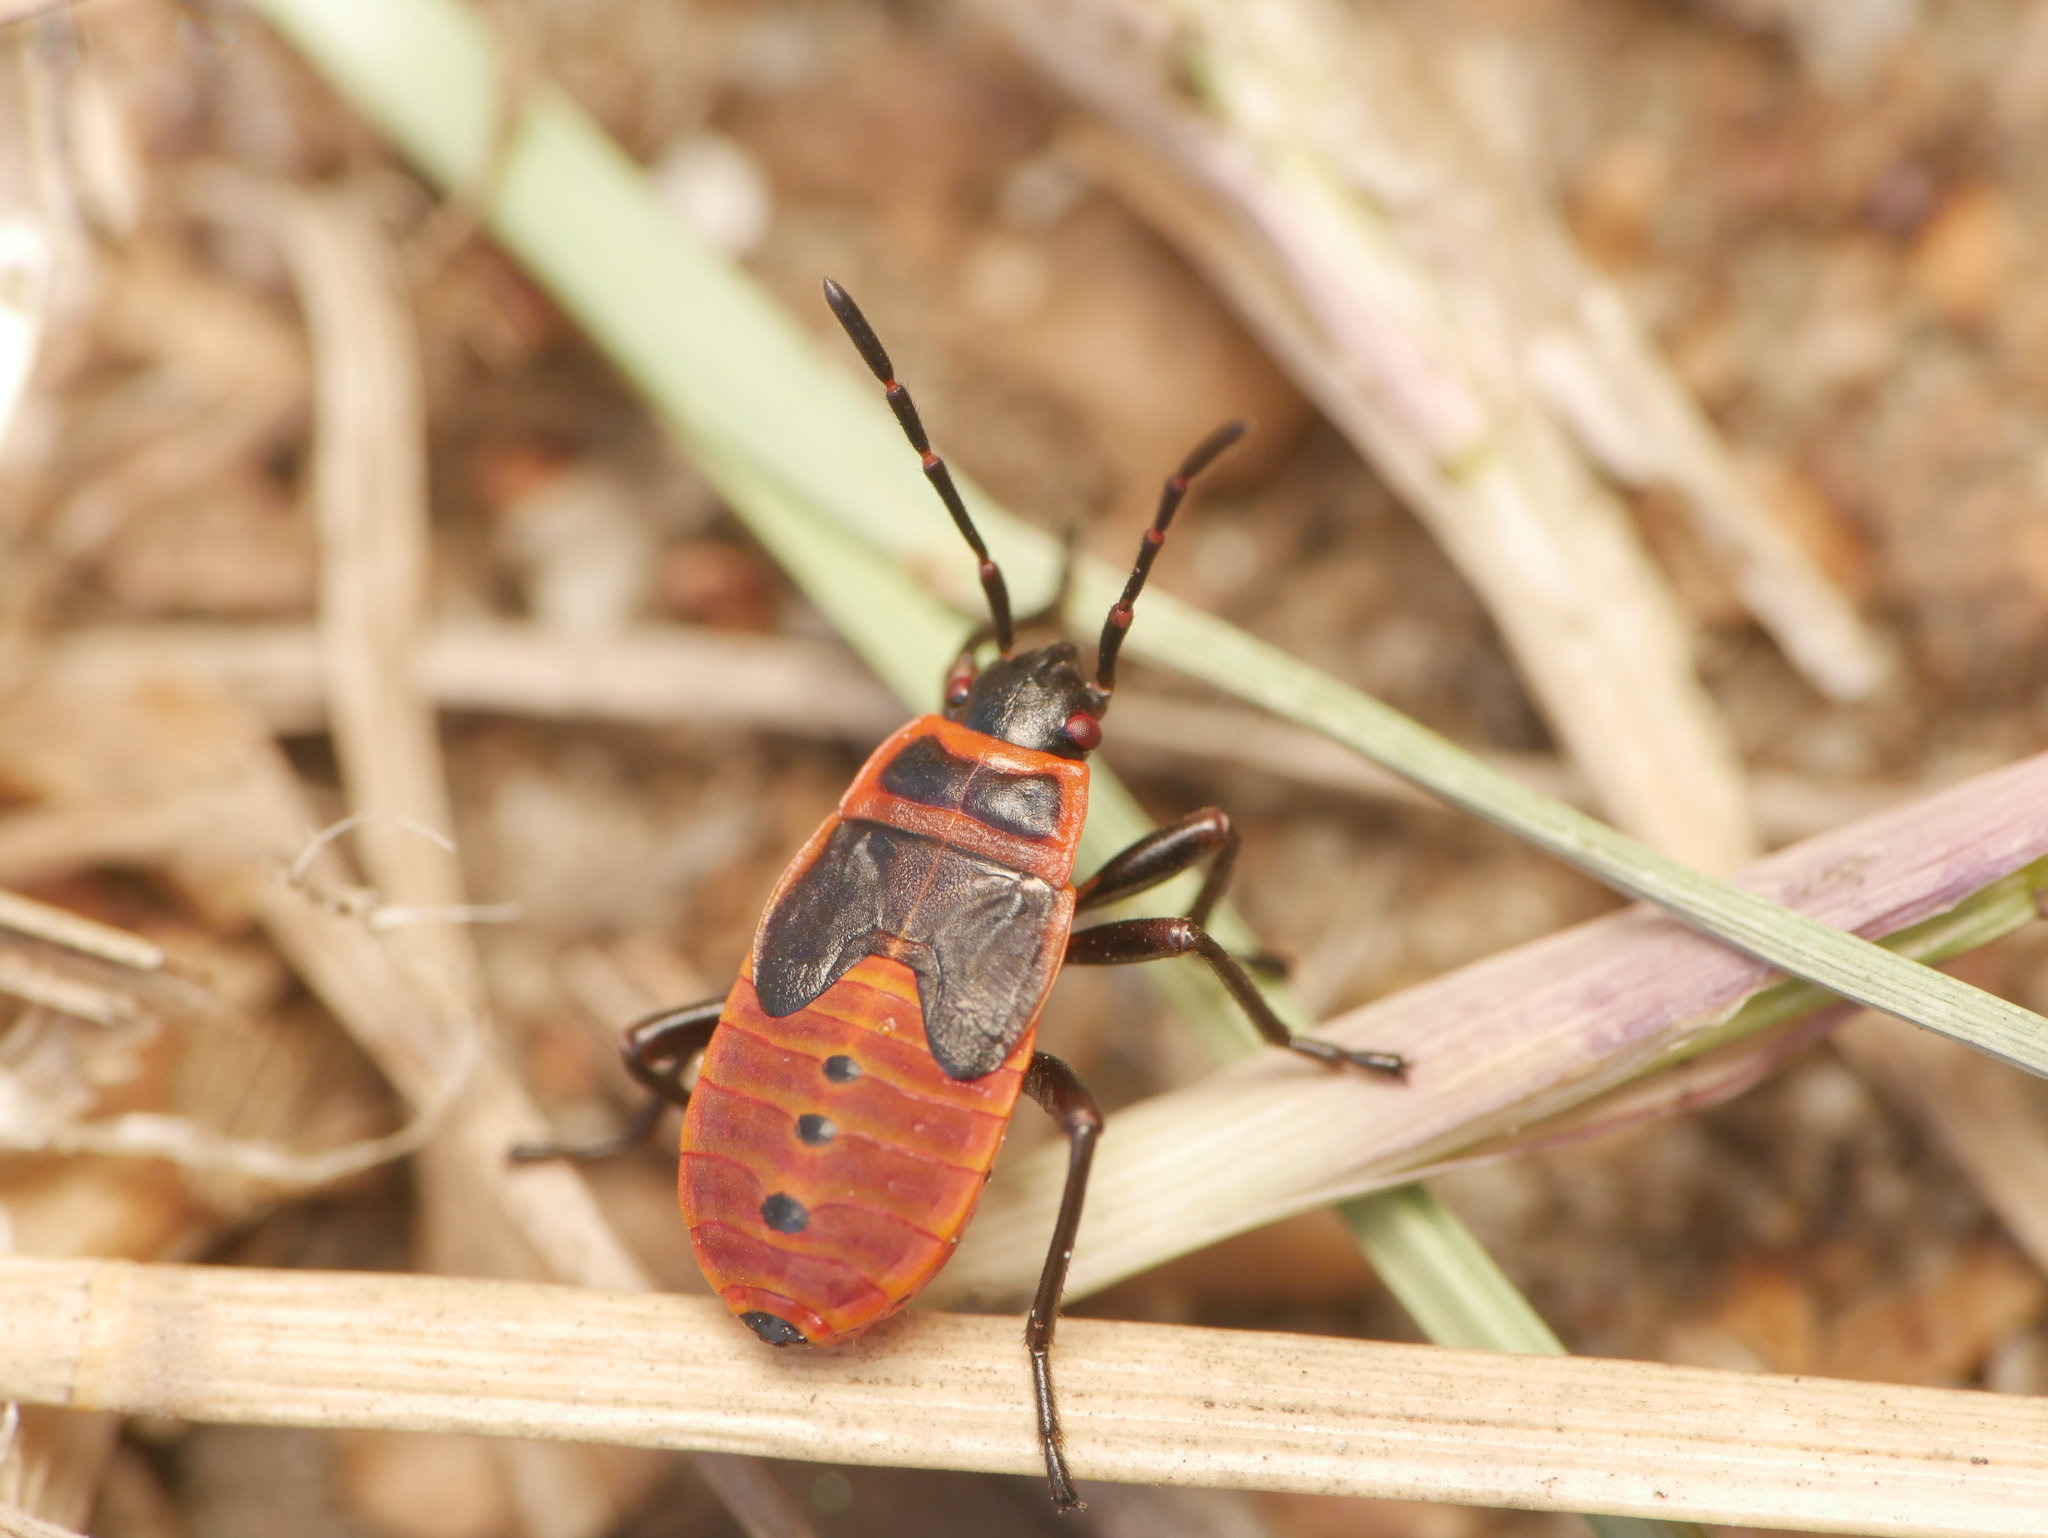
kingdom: Animalia
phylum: Arthropoda
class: Insecta
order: Hemiptera
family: Pyrrhocoridae
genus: Pyrrhocoris
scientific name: Pyrrhocoris apterus
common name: Firebug
